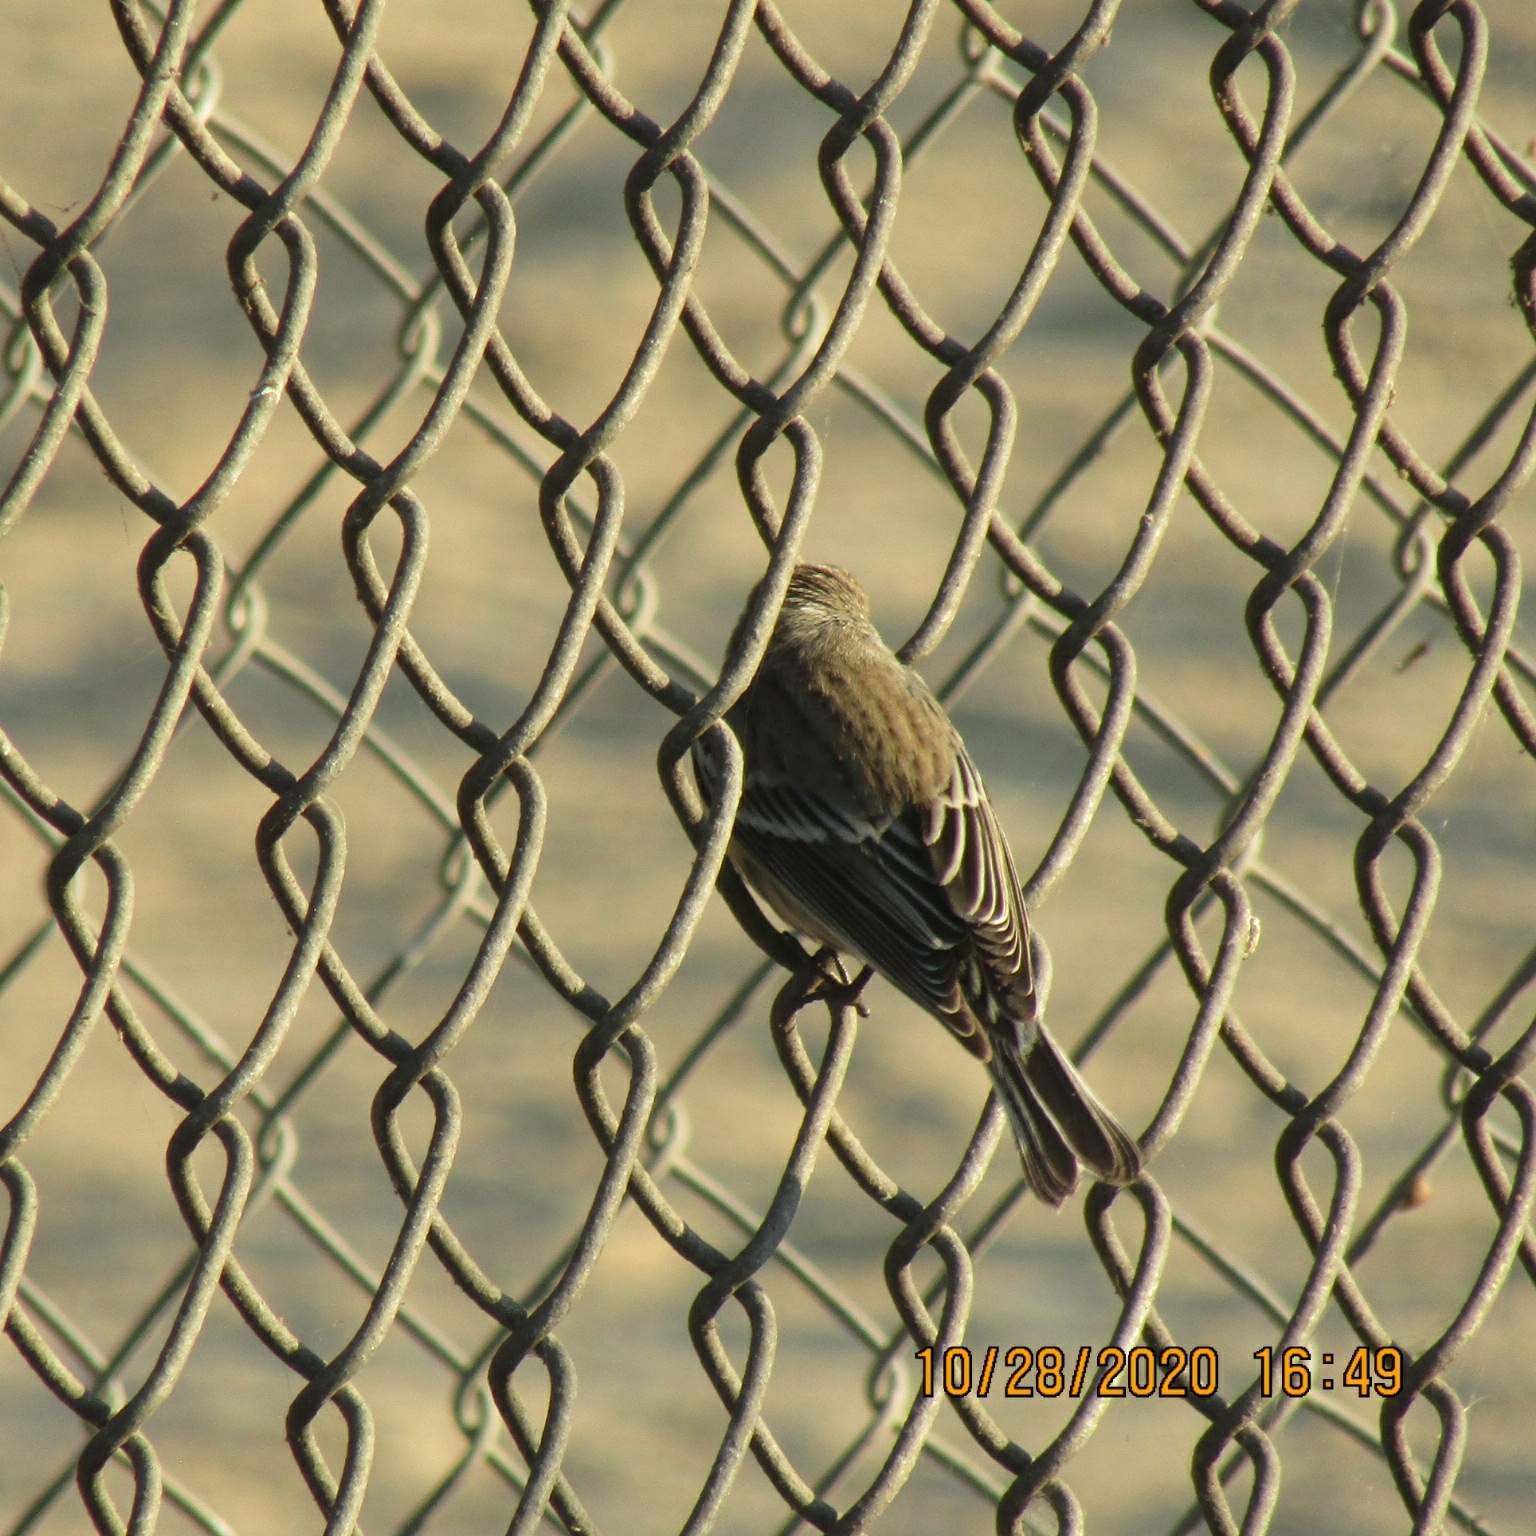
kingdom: Animalia
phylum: Chordata
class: Aves
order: Passeriformes
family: Parulidae
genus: Setophaga
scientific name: Setophaga coronata
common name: Myrtle warbler
